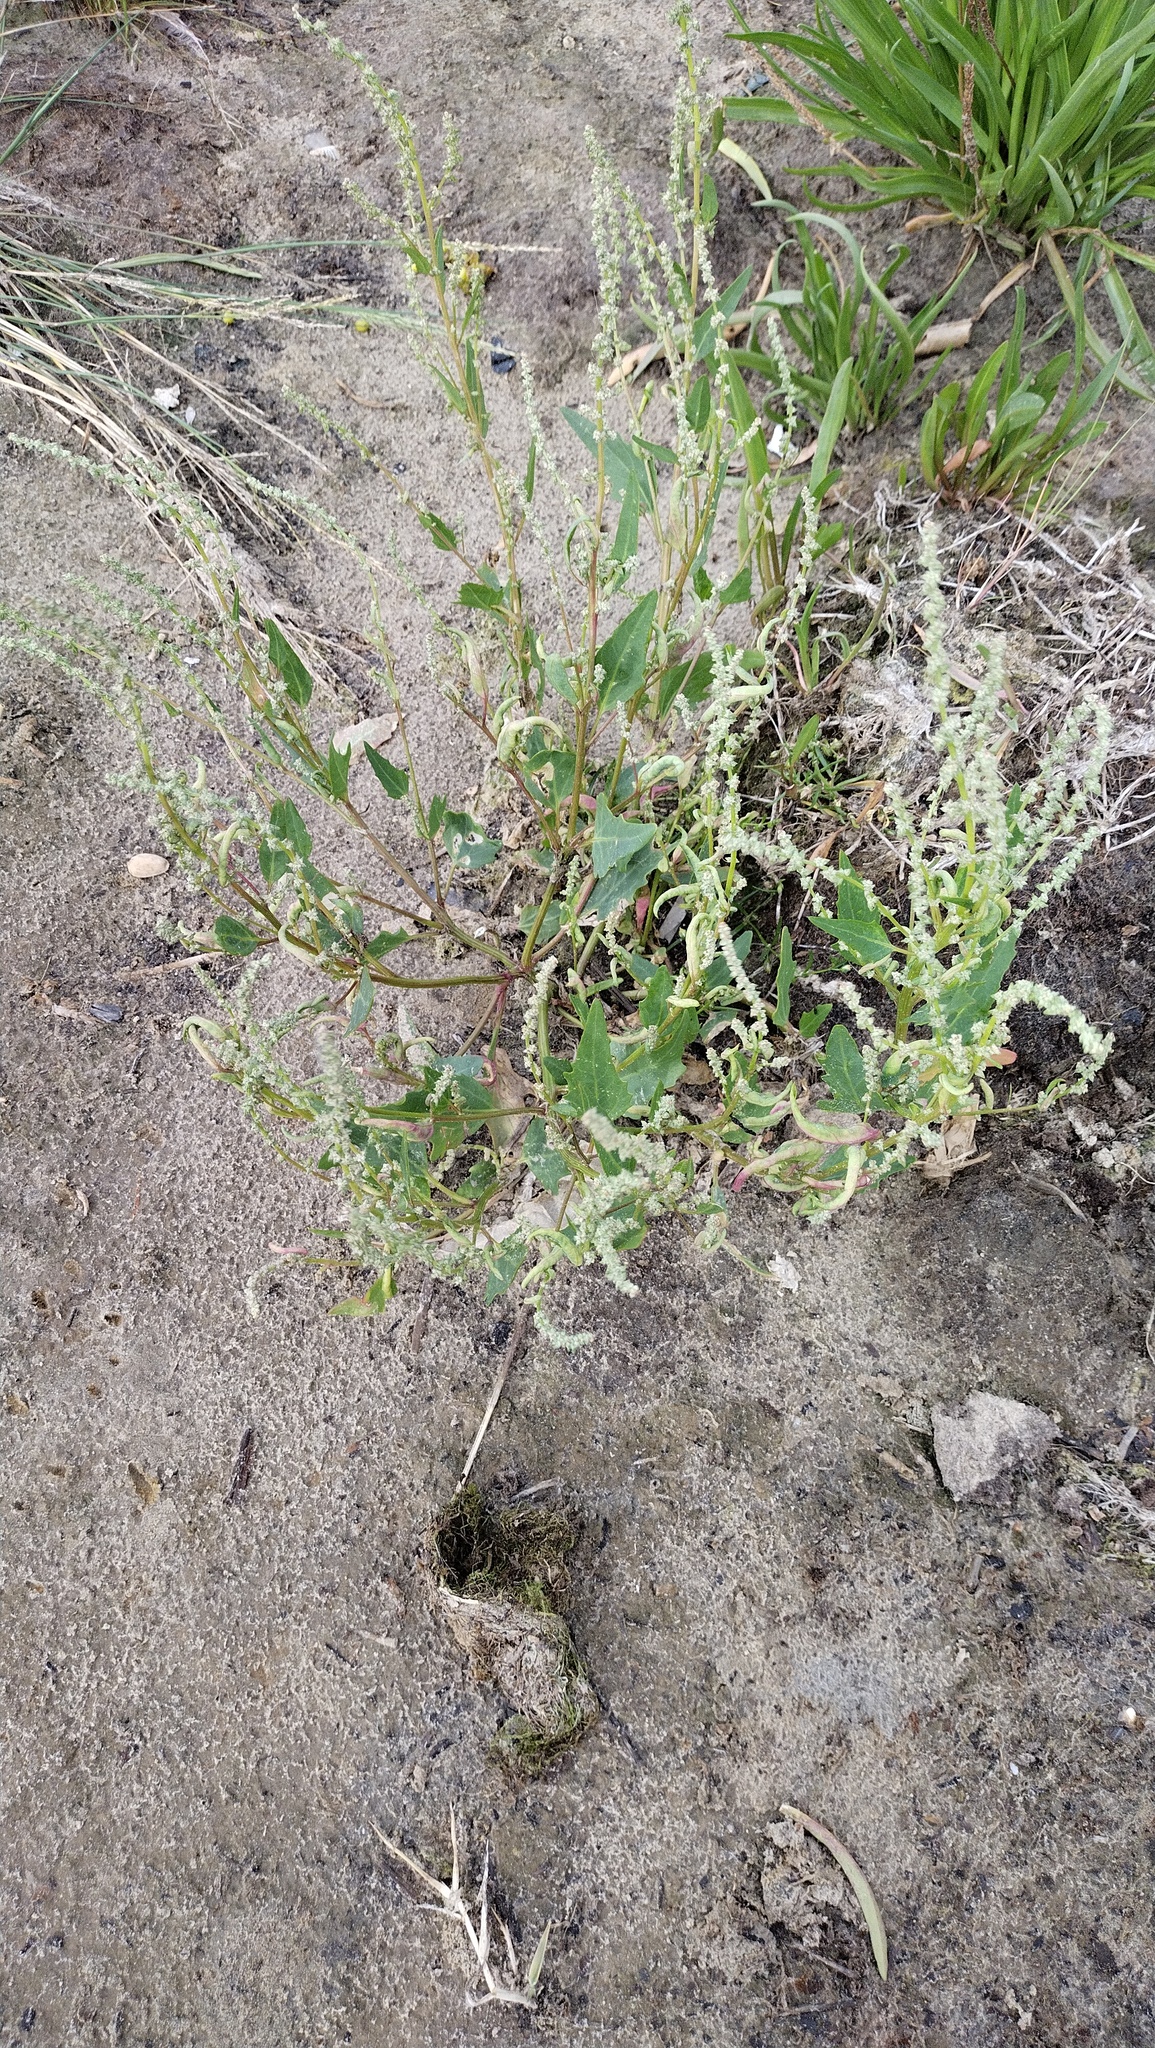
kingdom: Plantae
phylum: Tracheophyta
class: Magnoliopsida
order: Caryophyllales
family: Amaranthaceae
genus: Atriplex
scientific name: Atriplex prostrata
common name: Spear-leaved orache
